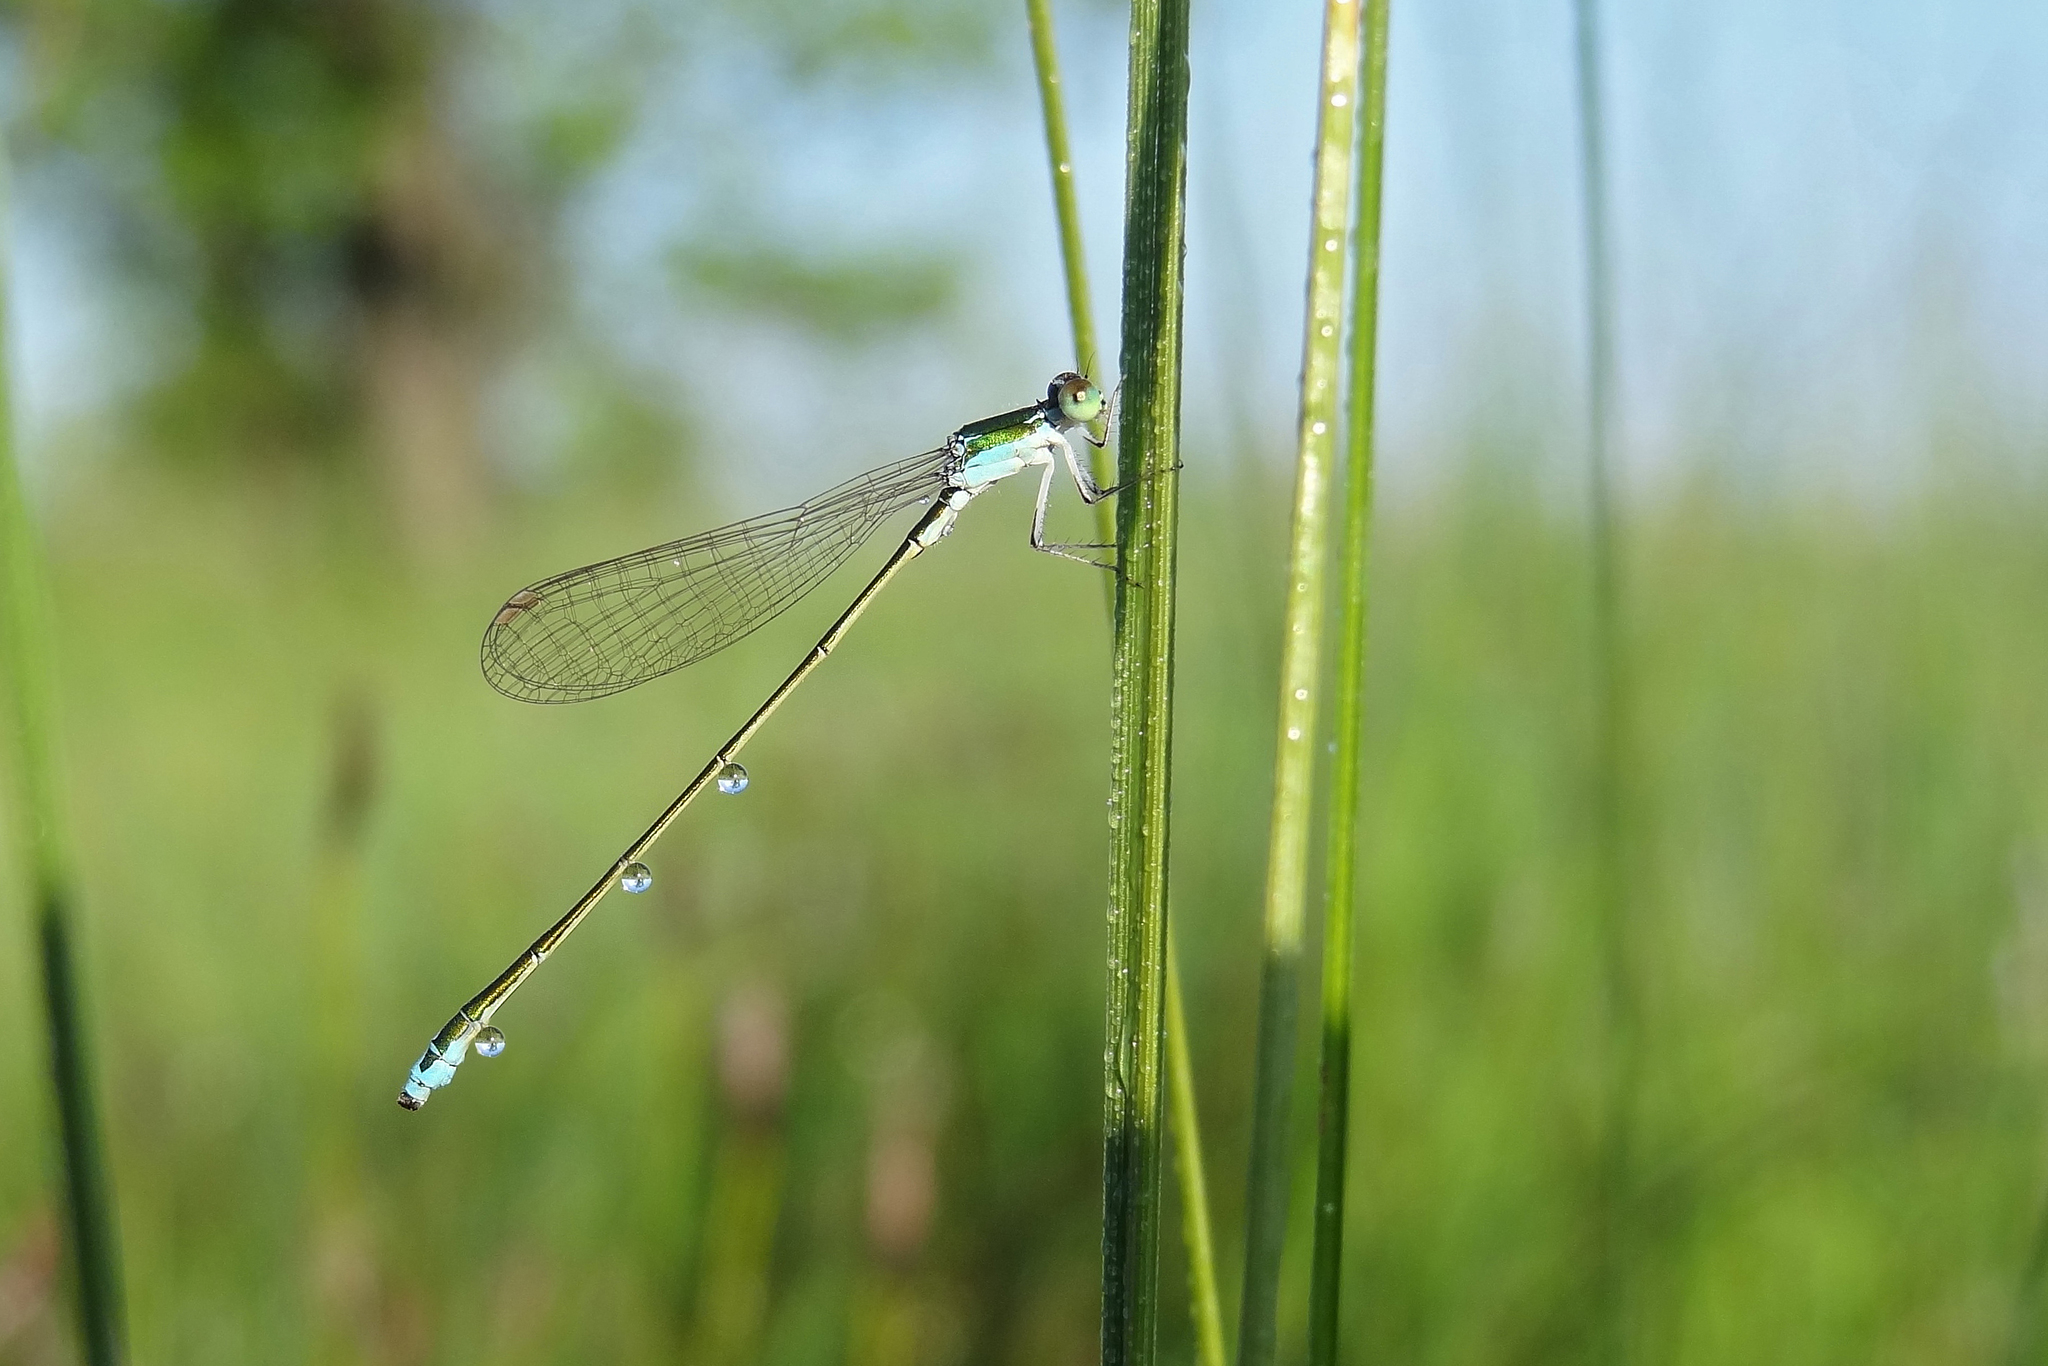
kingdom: Animalia
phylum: Arthropoda
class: Insecta
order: Odonata
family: Coenagrionidae
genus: Nehalennia
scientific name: Nehalennia speciosa
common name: Sedgling
